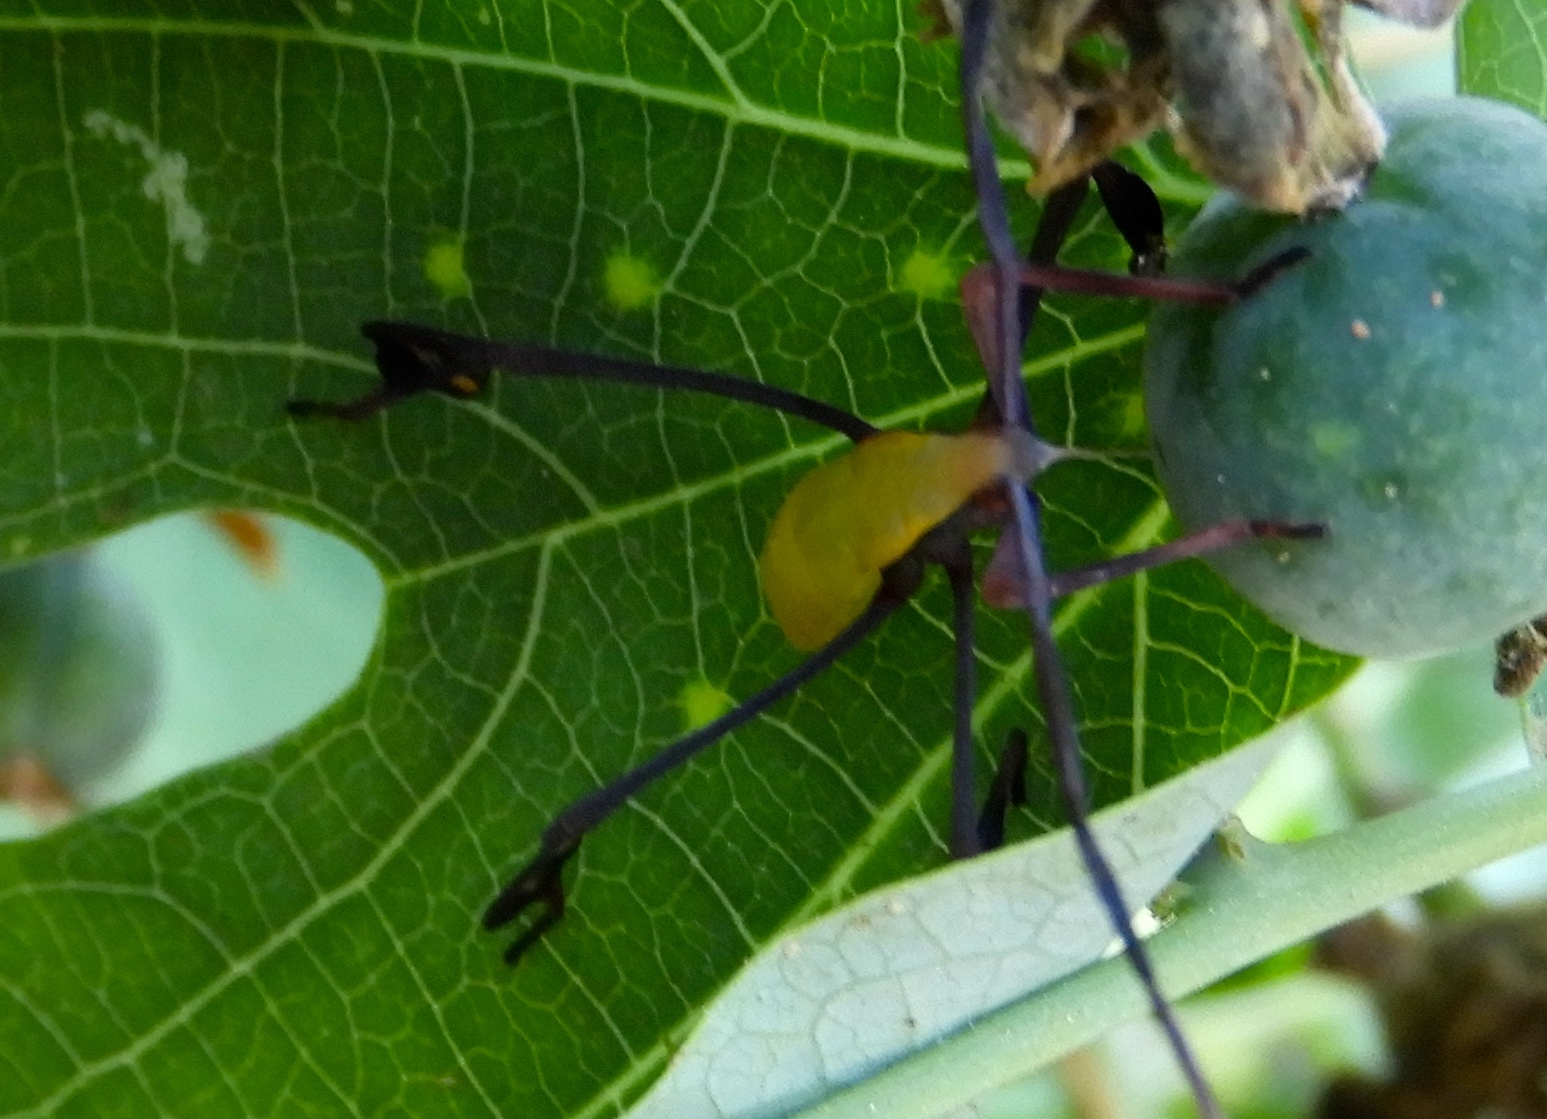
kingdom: Animalia
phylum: Arthropoda
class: Insecta
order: Hemiptera
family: Coreidae
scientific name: Coreidae
